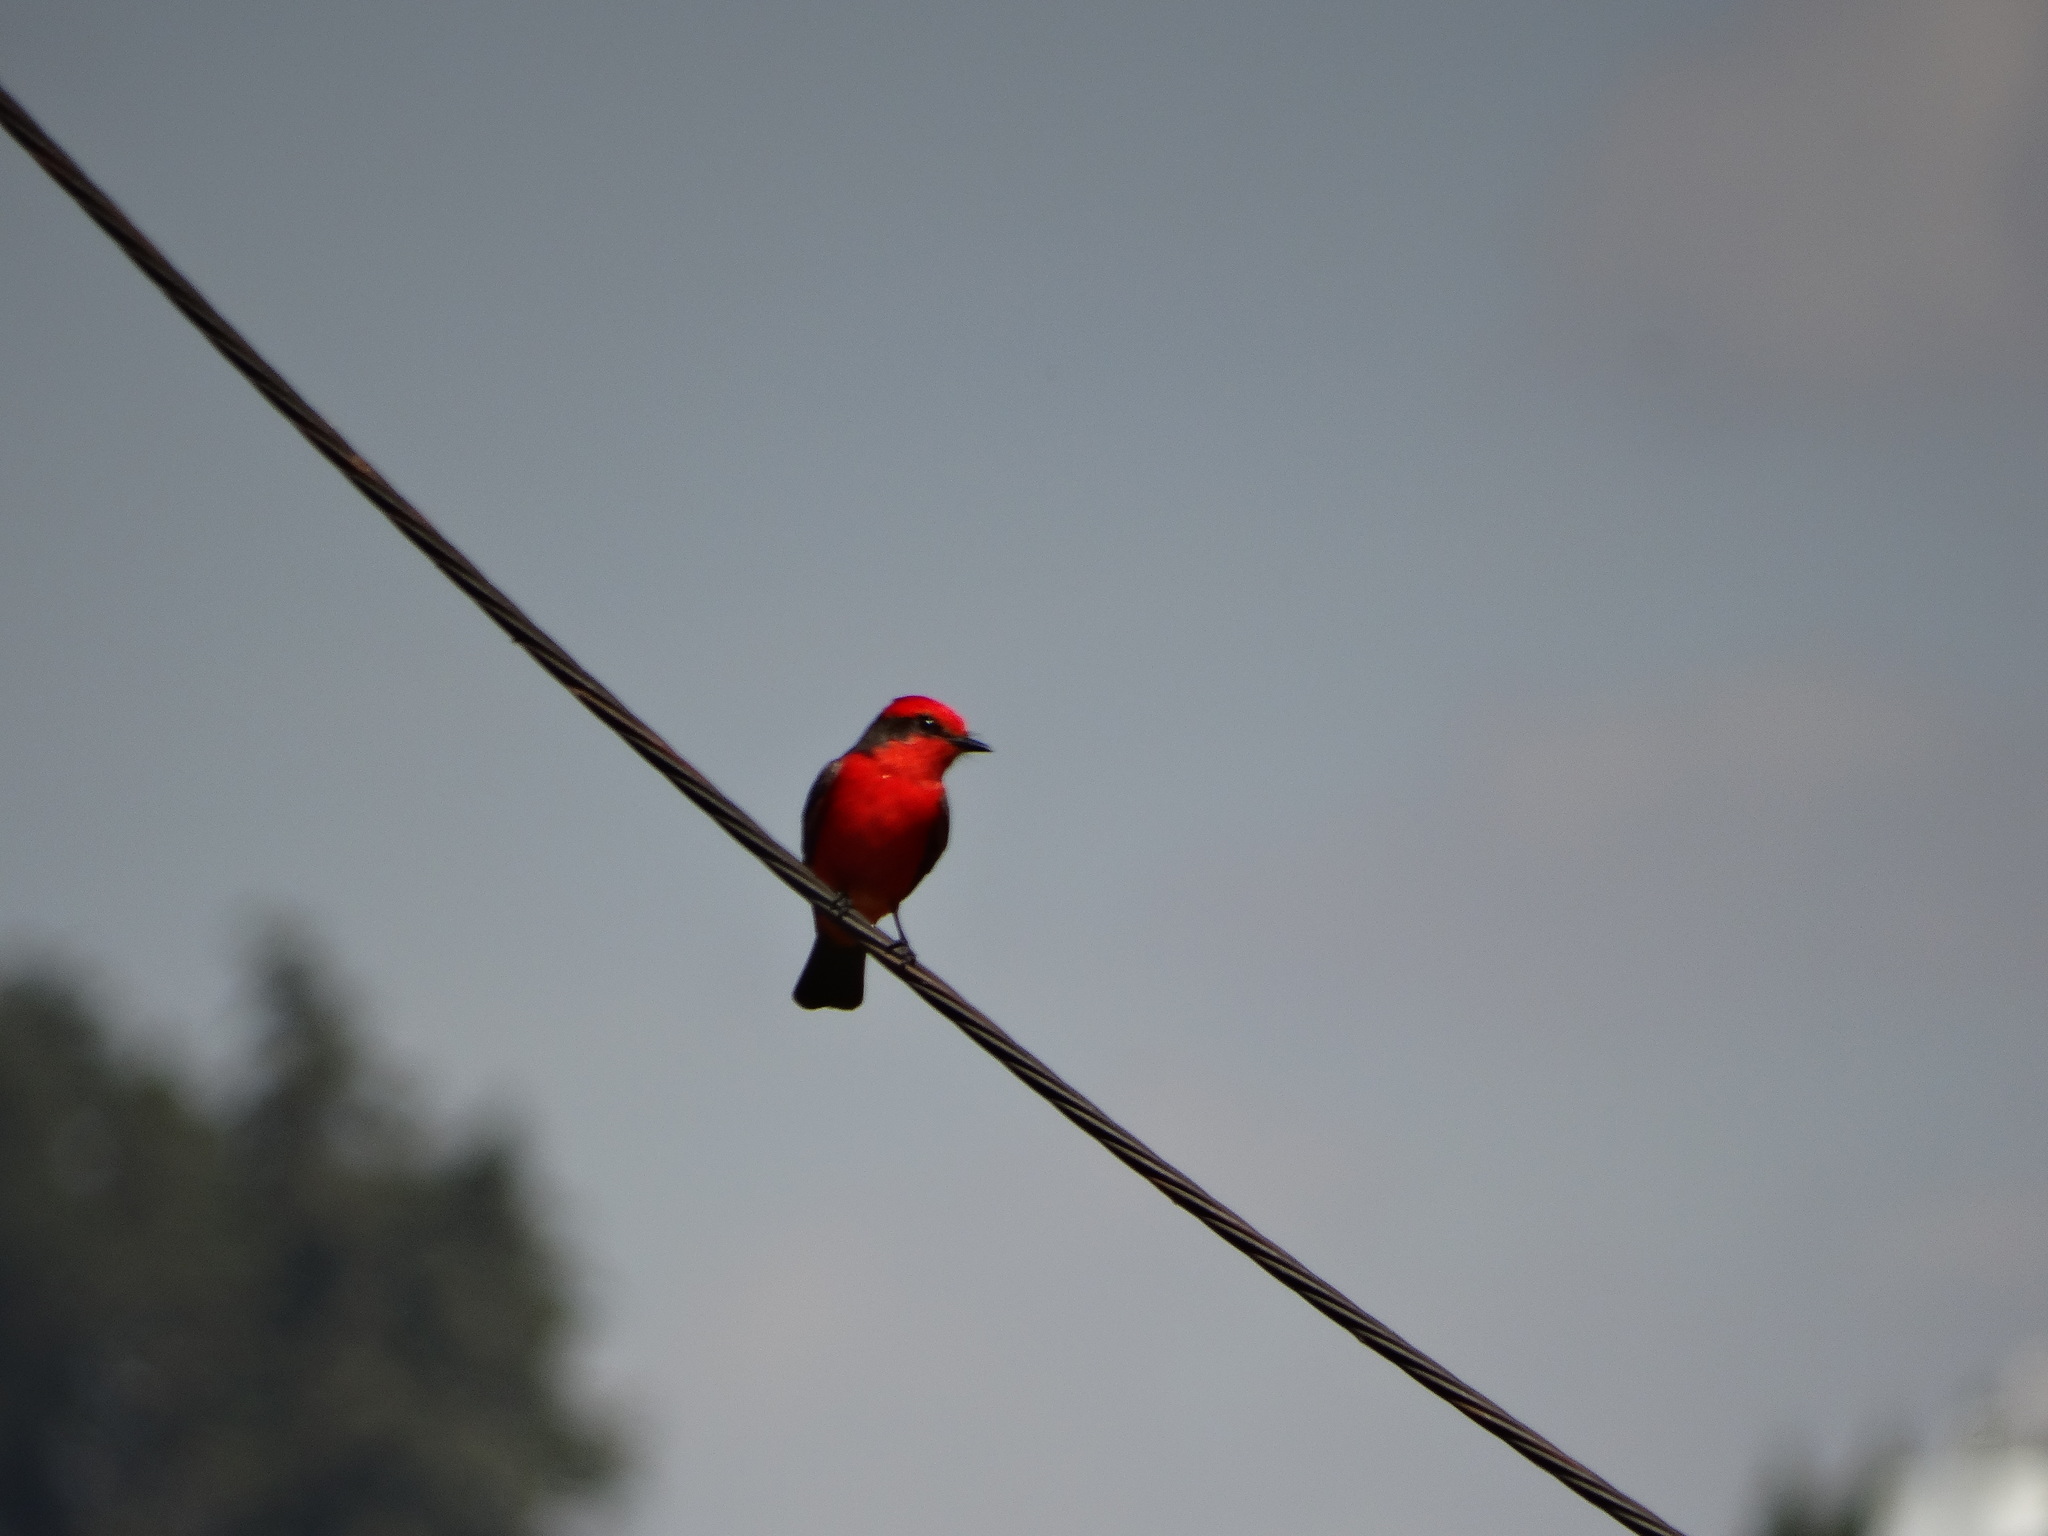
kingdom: Animalia
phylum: Chordata
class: Aves
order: Passeriformes
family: Tyrannidae
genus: Pyrocephalus
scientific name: Pyrocephalus rubinus
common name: Vermilion flycatcher
